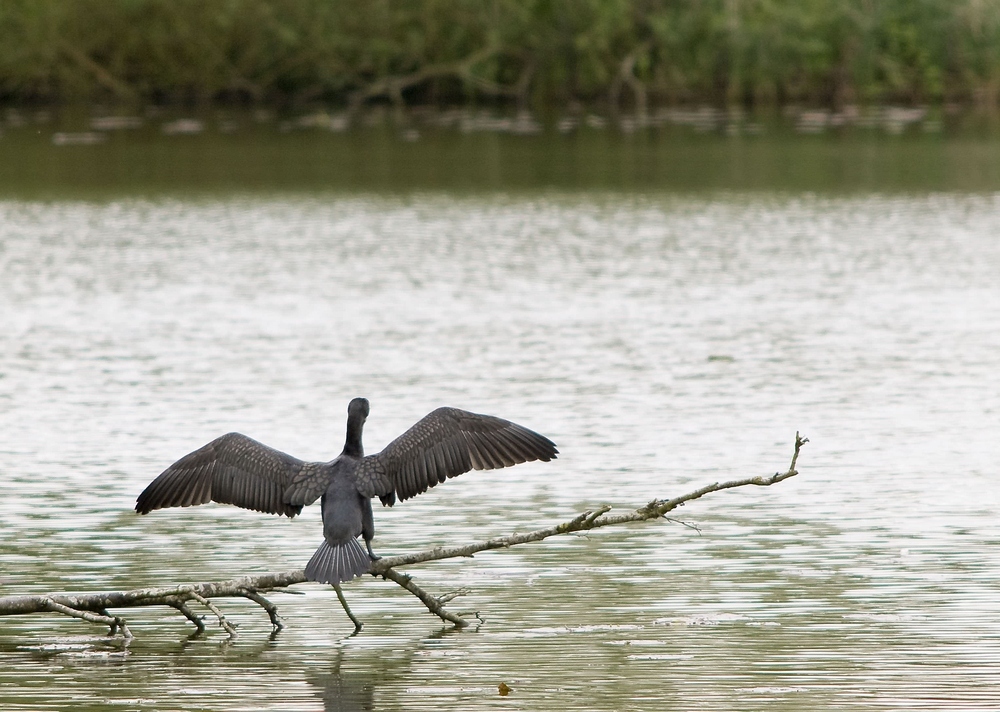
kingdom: Animalia
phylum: Chordata
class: Aves
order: Suliformes
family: Phalacrocoracidae
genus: Phalacrocorax
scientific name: Phalacrocorax carbo
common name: Great cormorant
